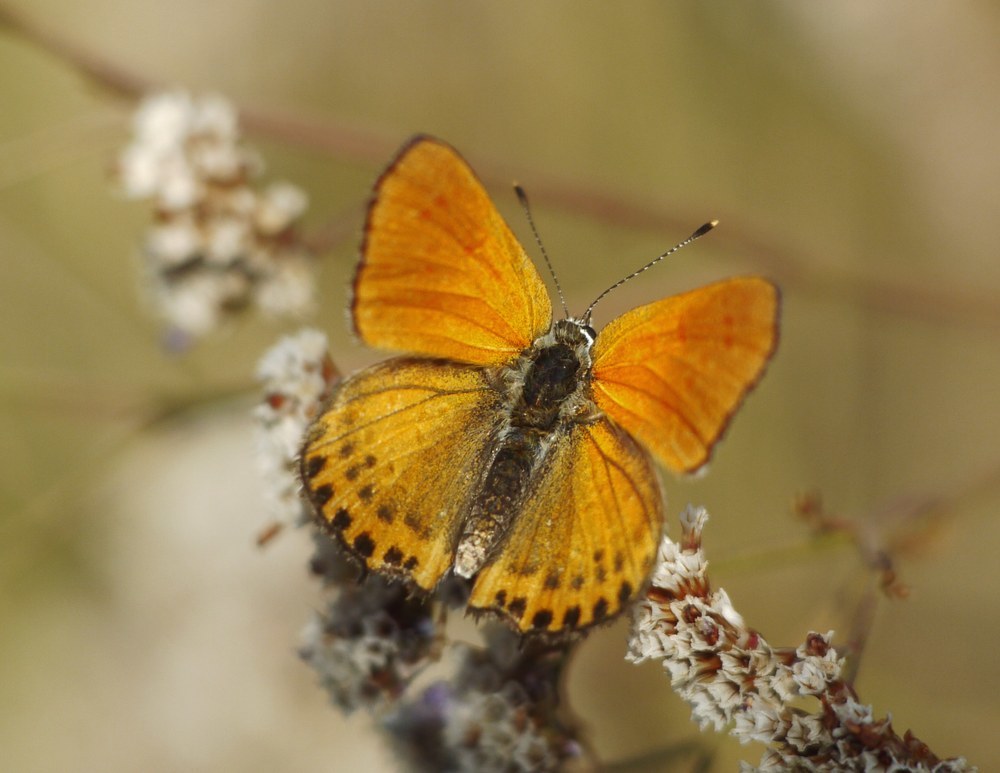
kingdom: Animalia
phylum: Arthropoda
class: Insecta
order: Lepidoptera
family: Lycaenidae
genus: Thersamonia
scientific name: Thersamonia thersamon
